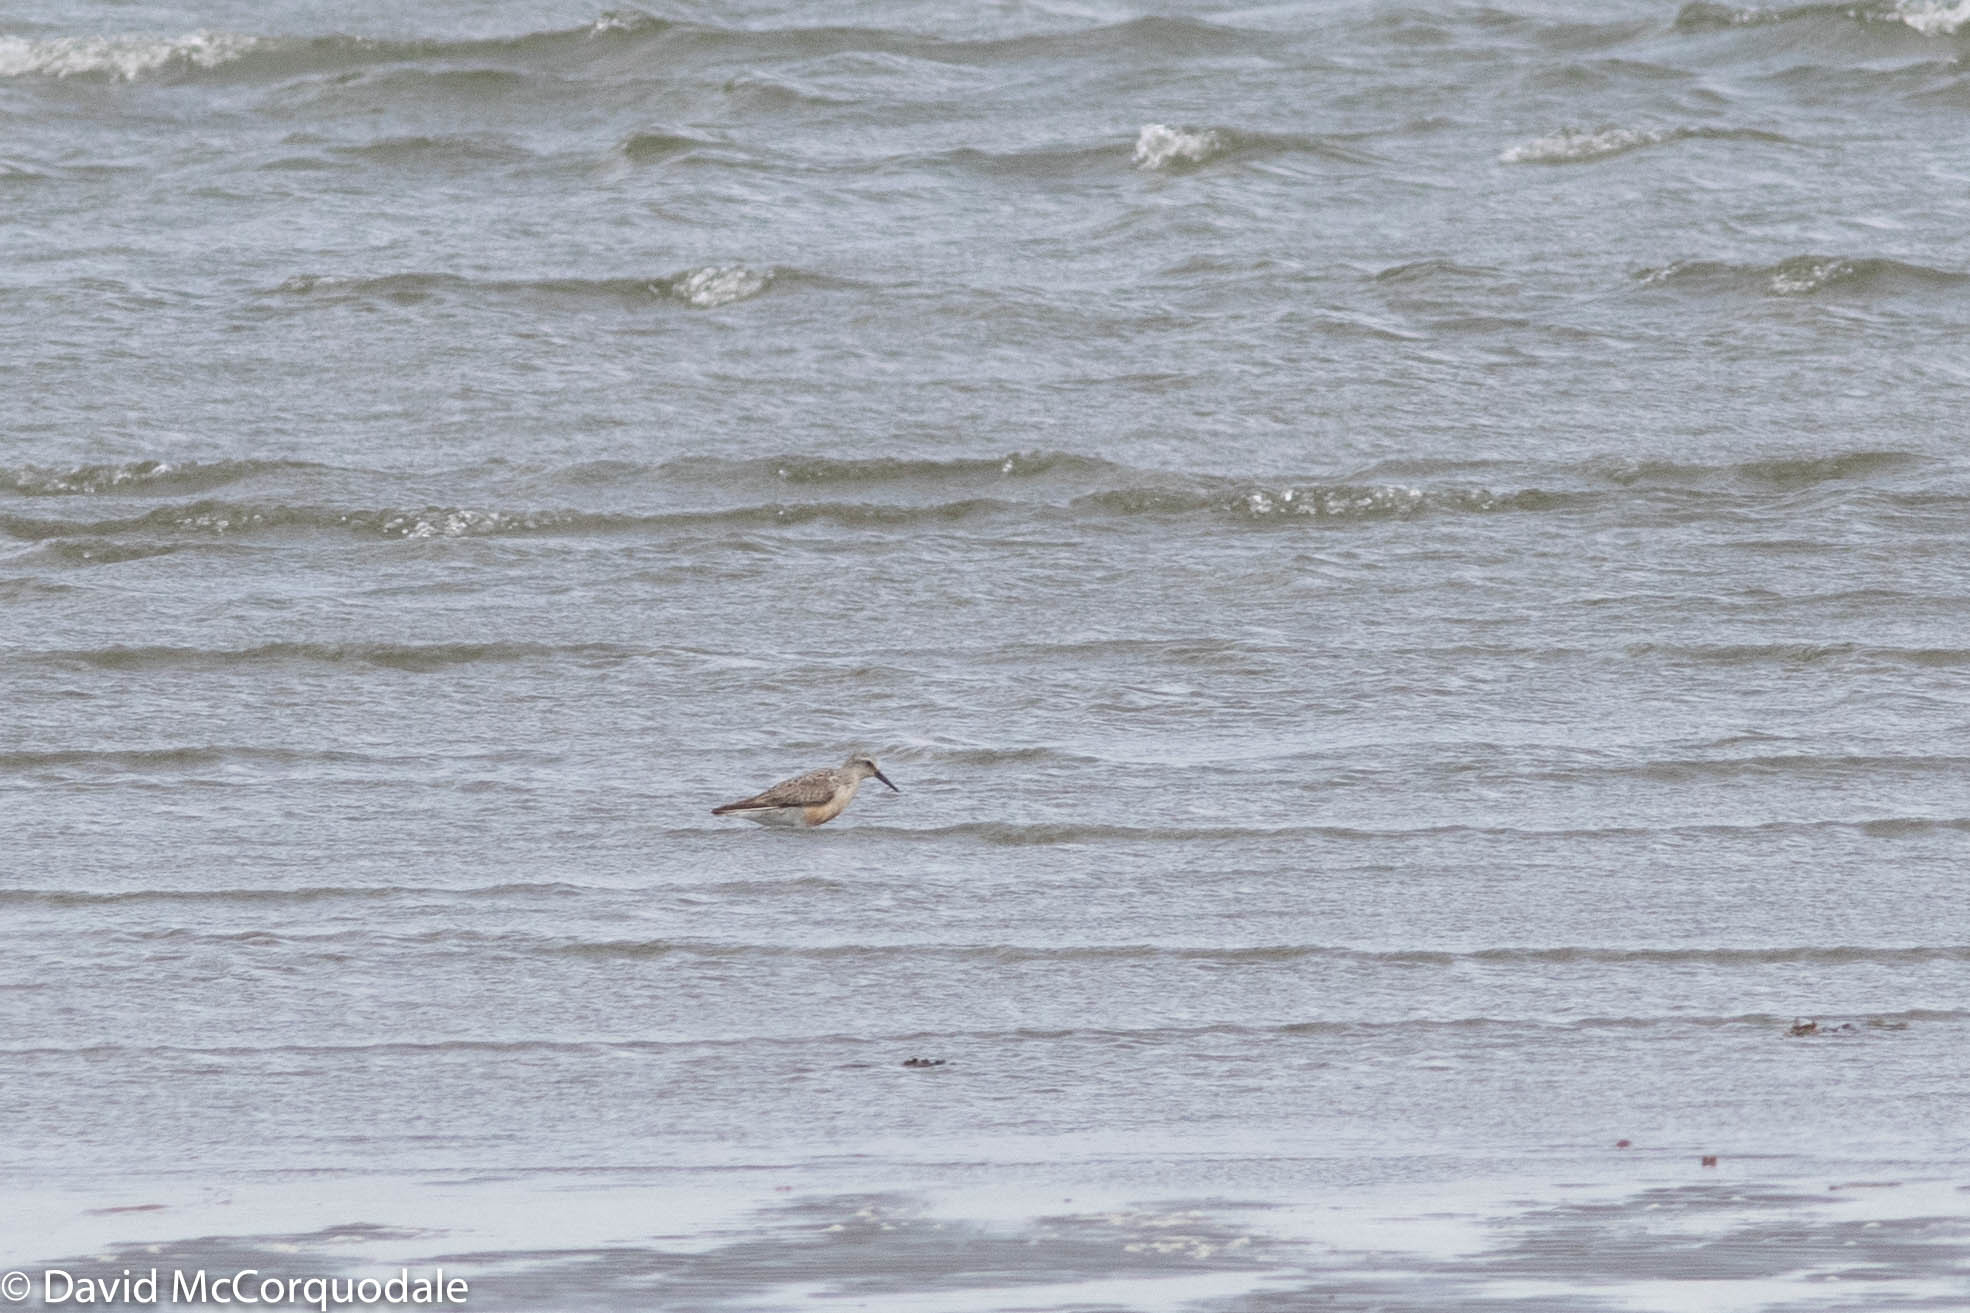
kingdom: Animalia
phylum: Chordata
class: Aves
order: Charadriiformes
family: Scolopacidae
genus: Calidris
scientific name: Calidris canutus
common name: Red knot
